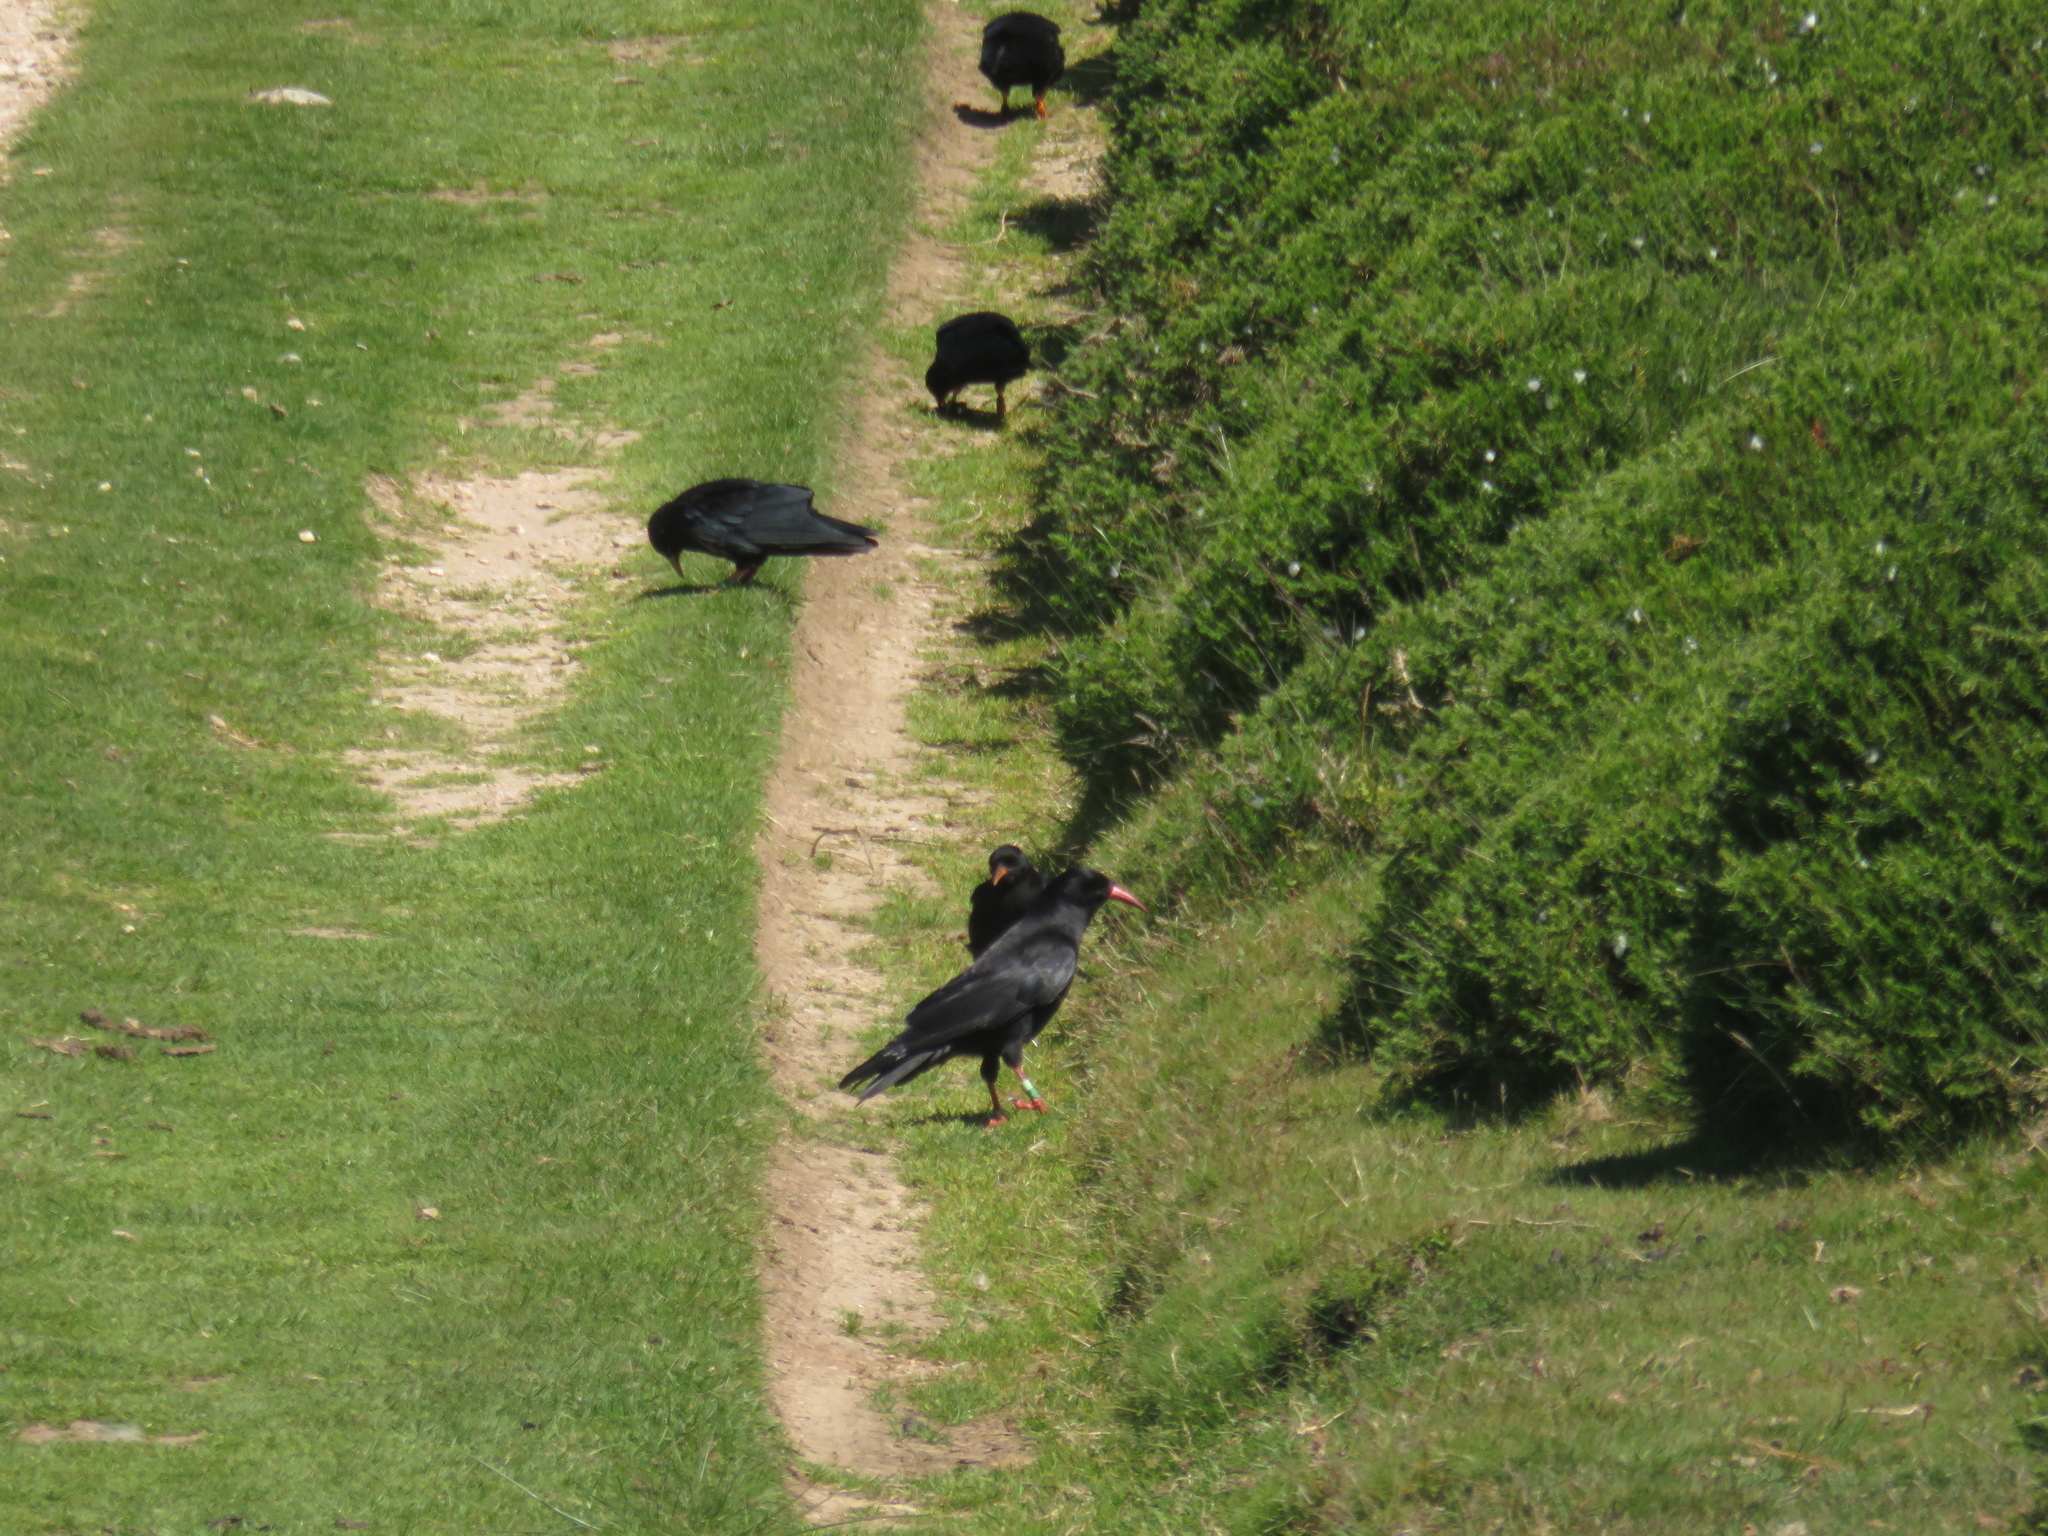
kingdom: Animalia
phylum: Chordata
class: Aves
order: Passeriformes
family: Corvidae
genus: Pyrrhocorax
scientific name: Pyrrhocorax pyrrhocorax
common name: Red-billed chough
